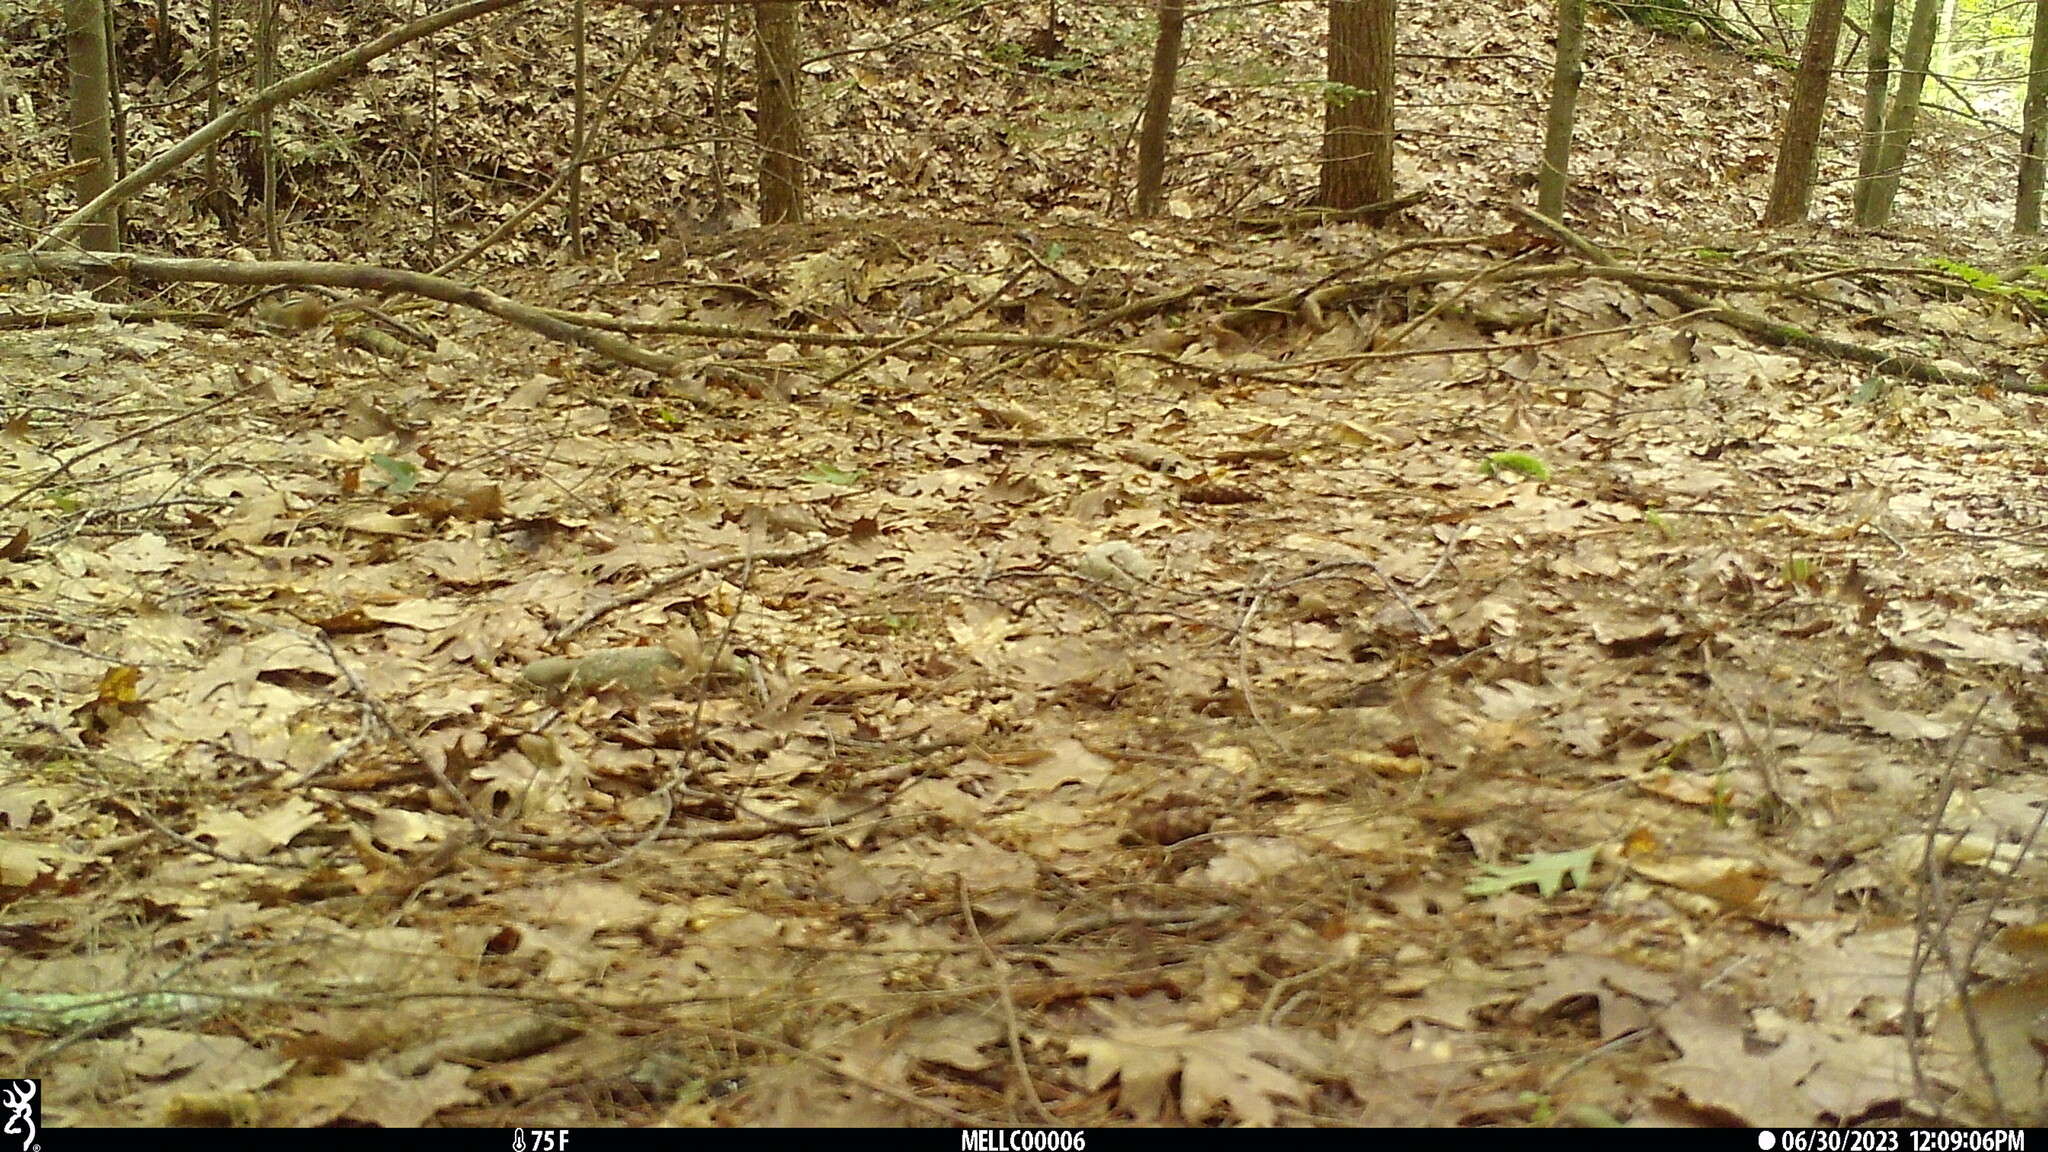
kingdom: Animalia
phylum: Chordata
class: Mammalia
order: Rodentia
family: Sciuridae
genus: Tamias
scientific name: Tamias striatus
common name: Eastern chipmunk
